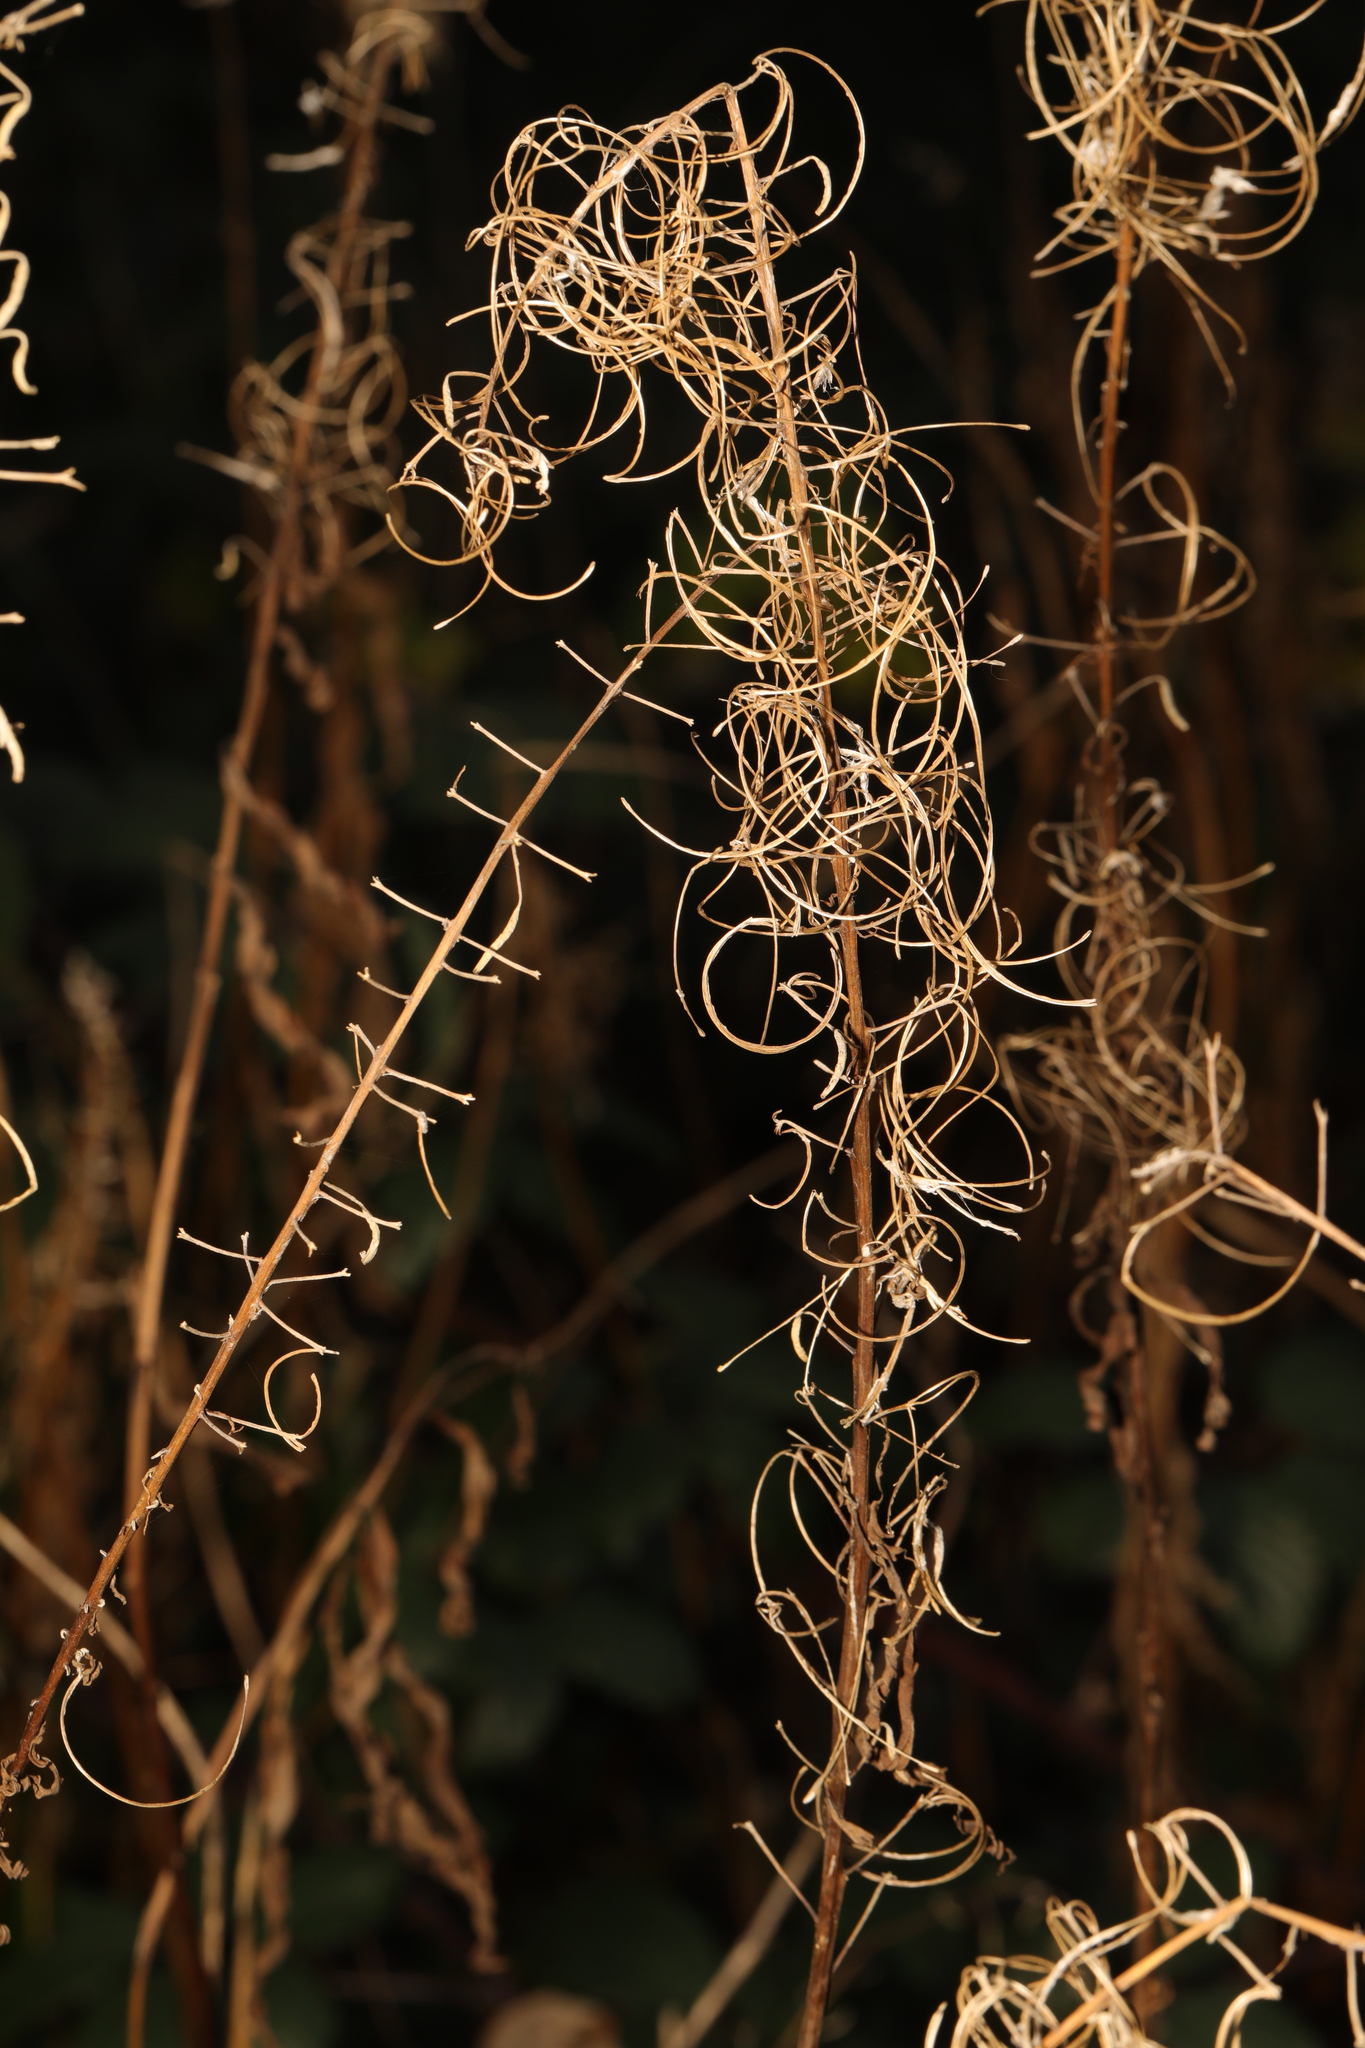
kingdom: Plantae
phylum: Tracheophyta
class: Magnoliopsida
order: Myrtales
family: Onagraceae
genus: Chamaenerion
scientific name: Chamaenerion angustifolium
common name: Fireweed
